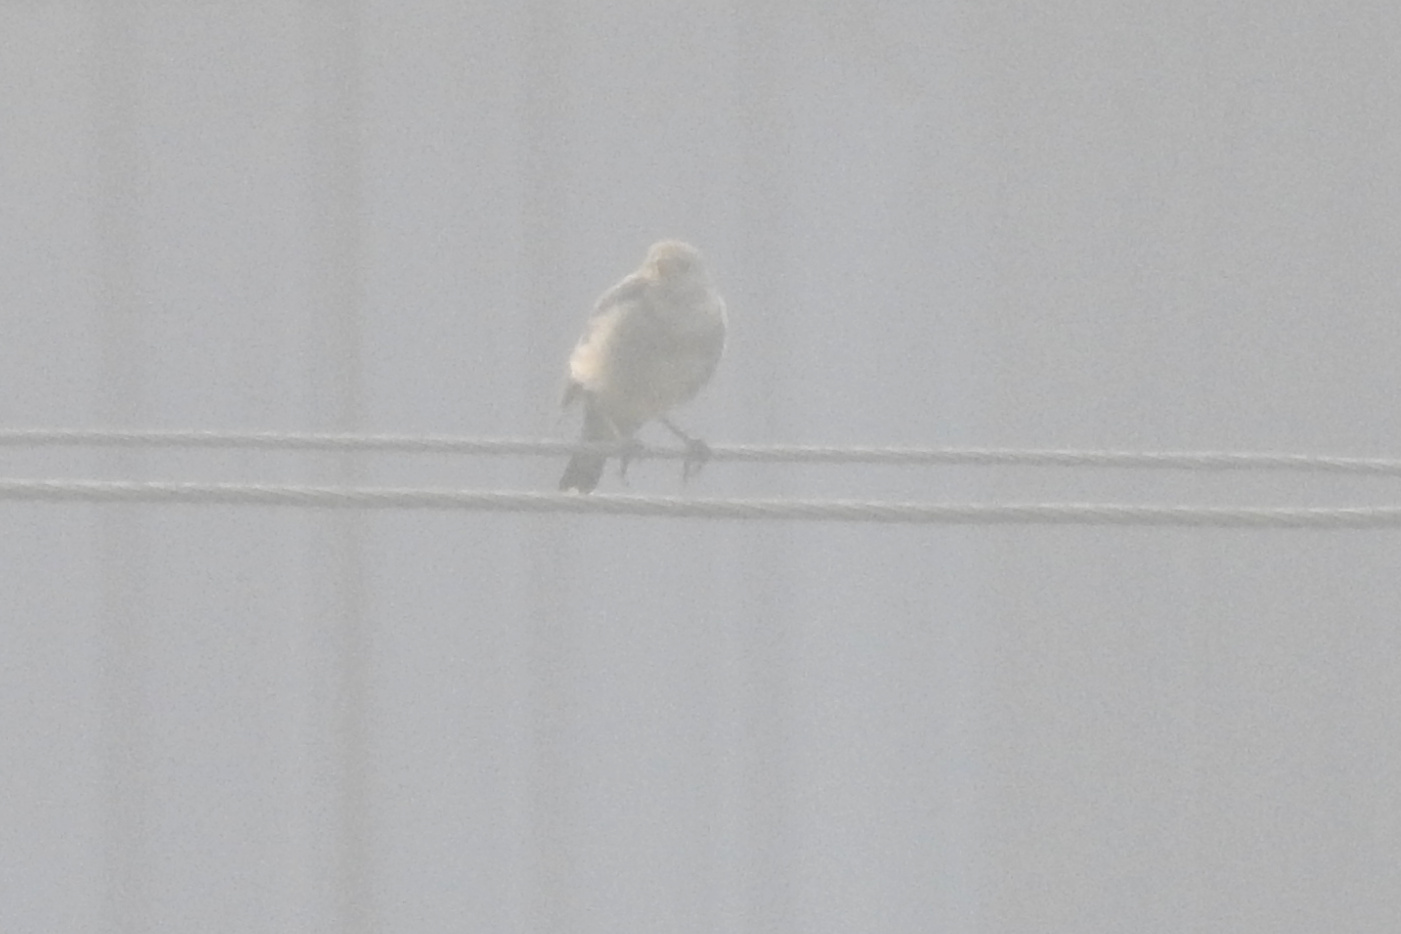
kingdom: Animalia
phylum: Chordata
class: Aves
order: Passeriformes
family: Sturnidae
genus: Pastor
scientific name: Pastor roseus
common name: Rosy starling
